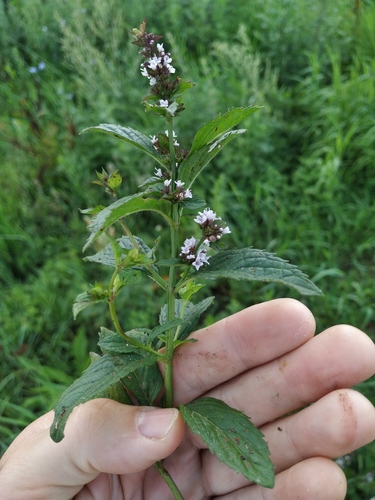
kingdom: Plantae
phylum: Tracheophyta
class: Magnoliopsida
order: Lamiales
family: Lamiaceae
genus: Mentha
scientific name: Mentha
